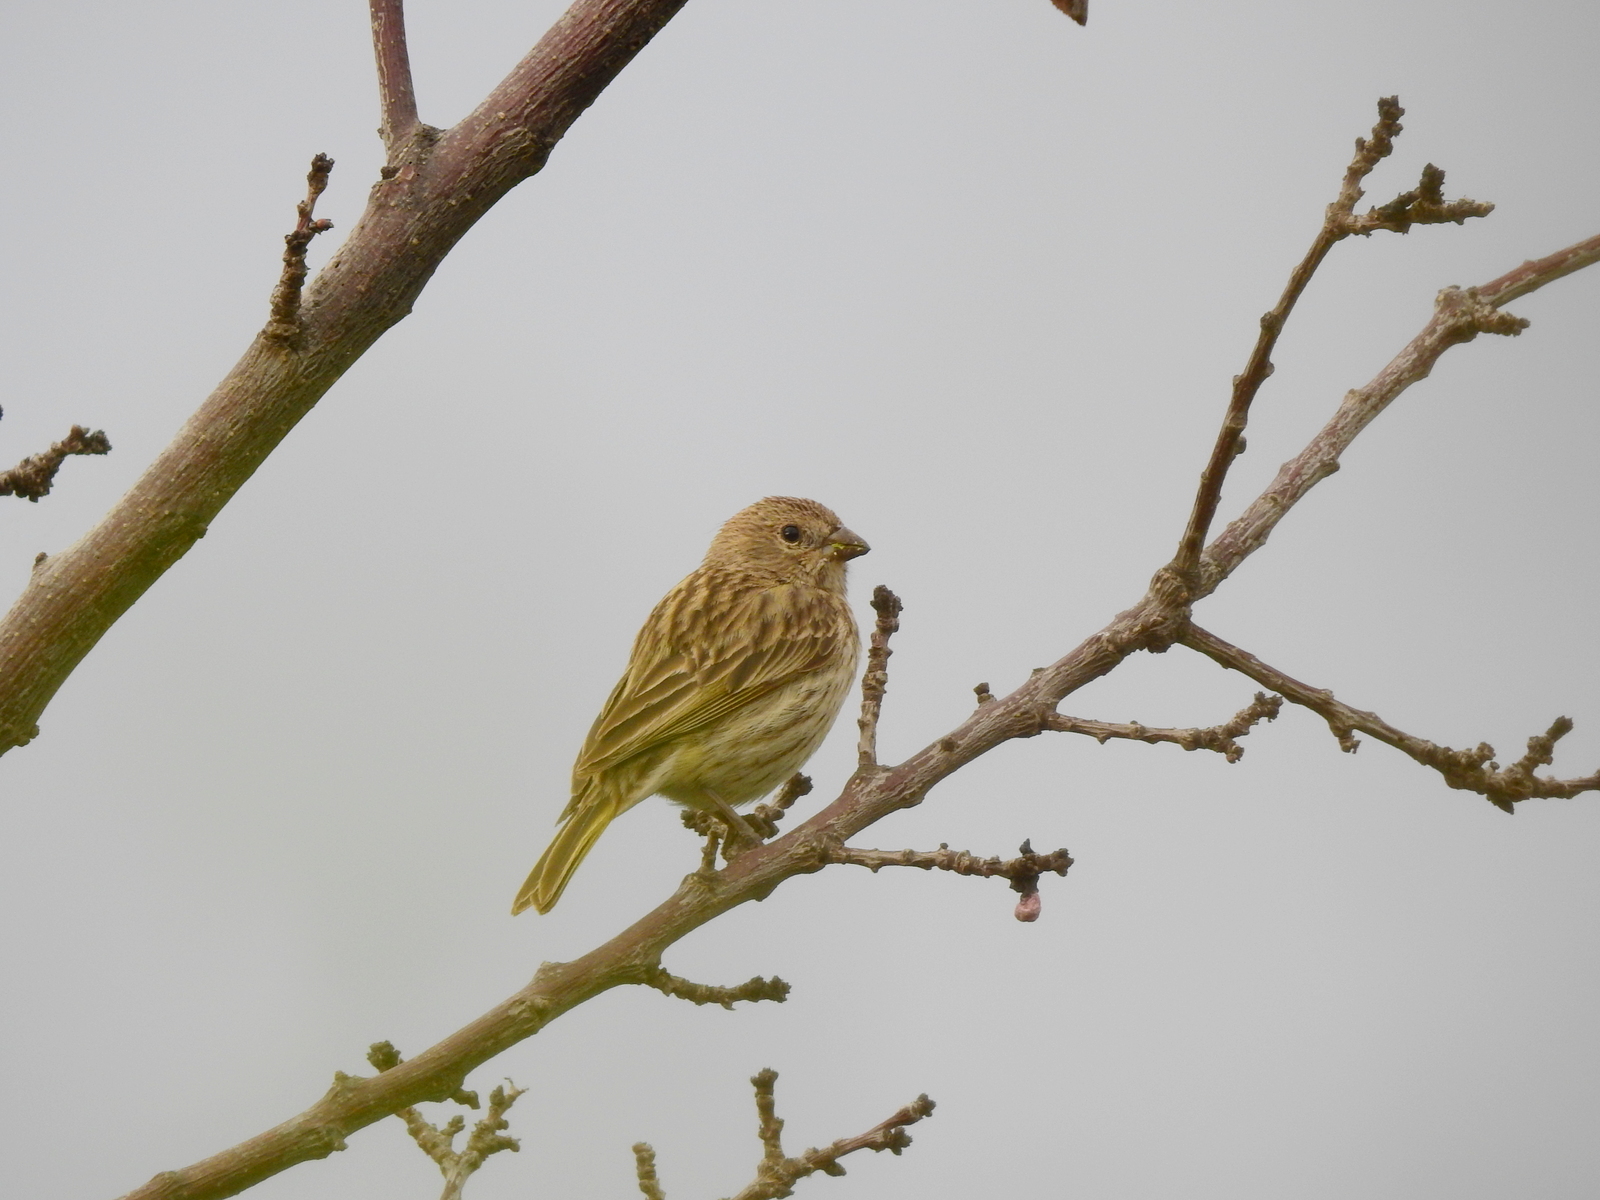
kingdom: Animalia
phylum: Chordata
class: Aves
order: Passeriformes
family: Thraupidae
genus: Sicalis
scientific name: Sicalis flaveola
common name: Saffron finch
